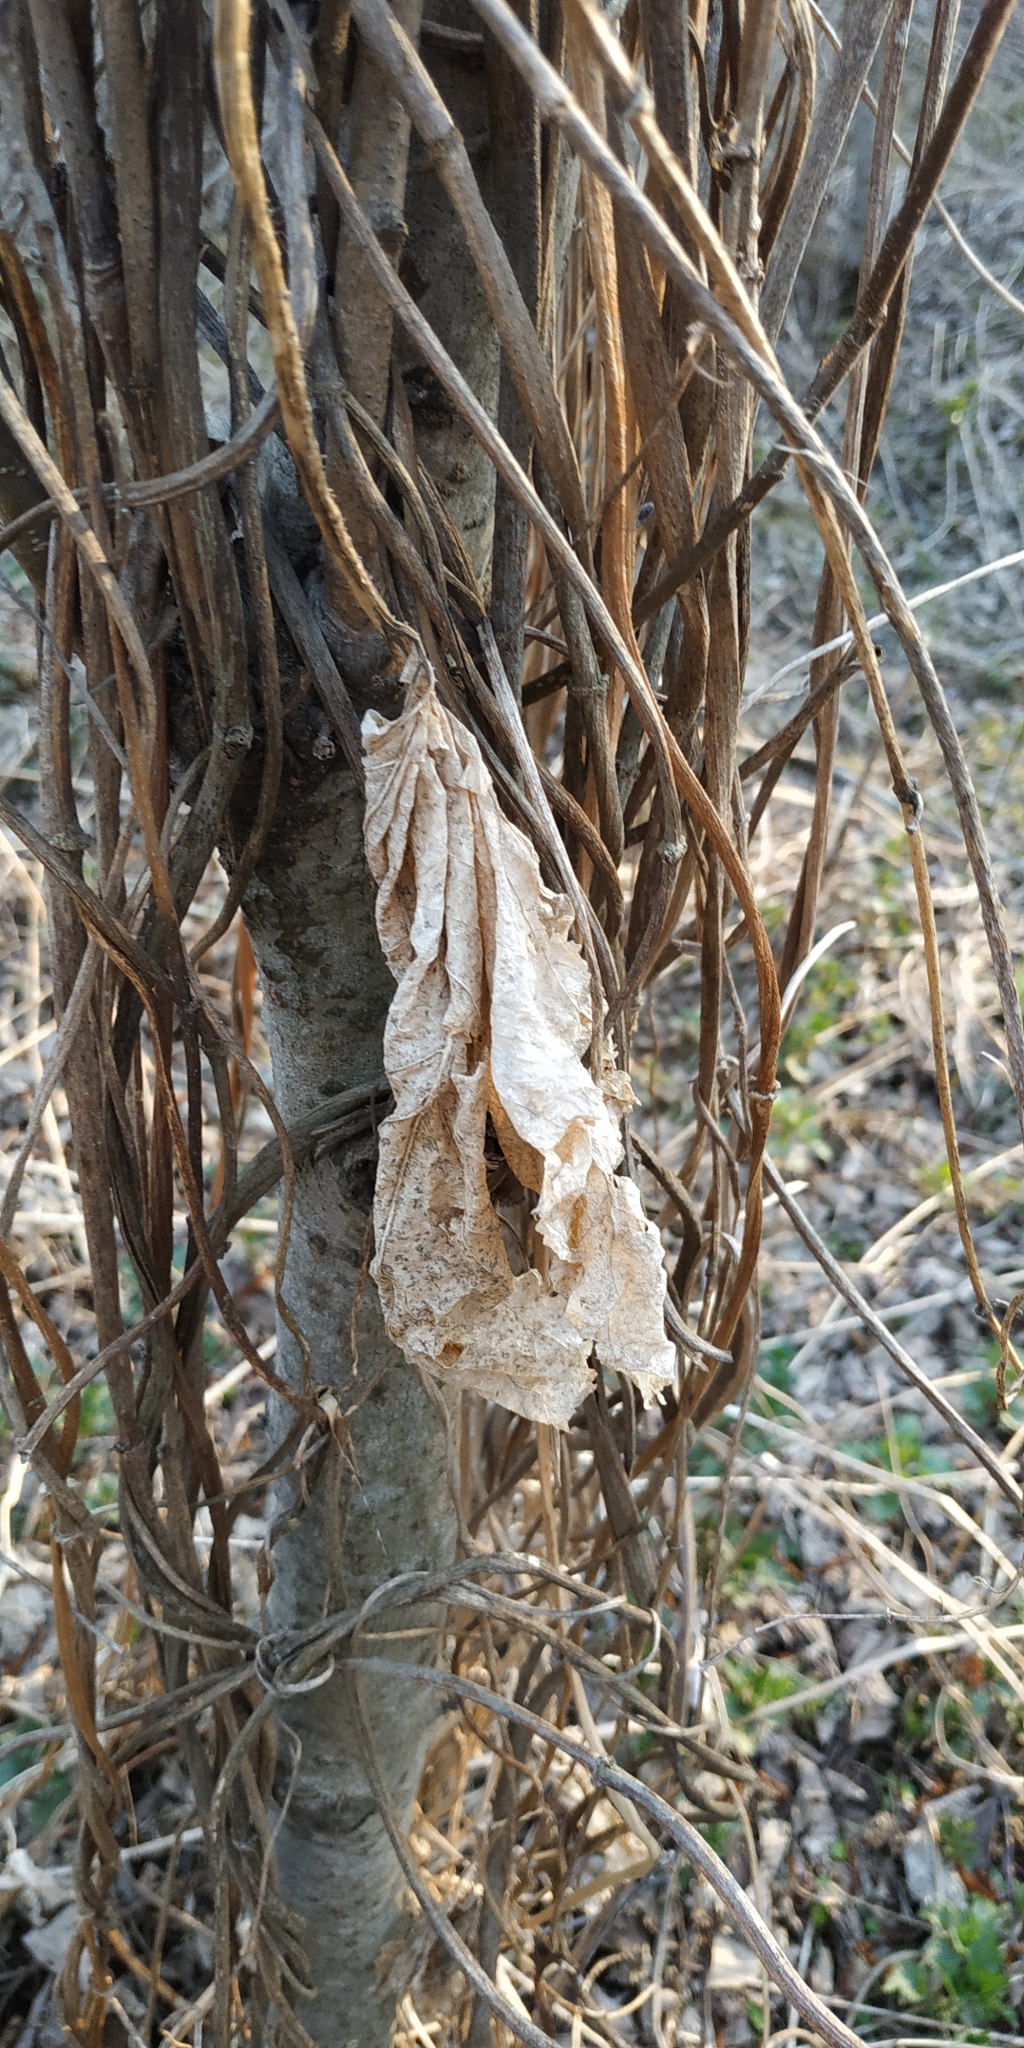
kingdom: Plantae
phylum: Tracheophyta
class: Magnoliopsida
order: Rosales
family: Cannabaceae
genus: Humulus
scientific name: Humulus lupulus
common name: Hop
